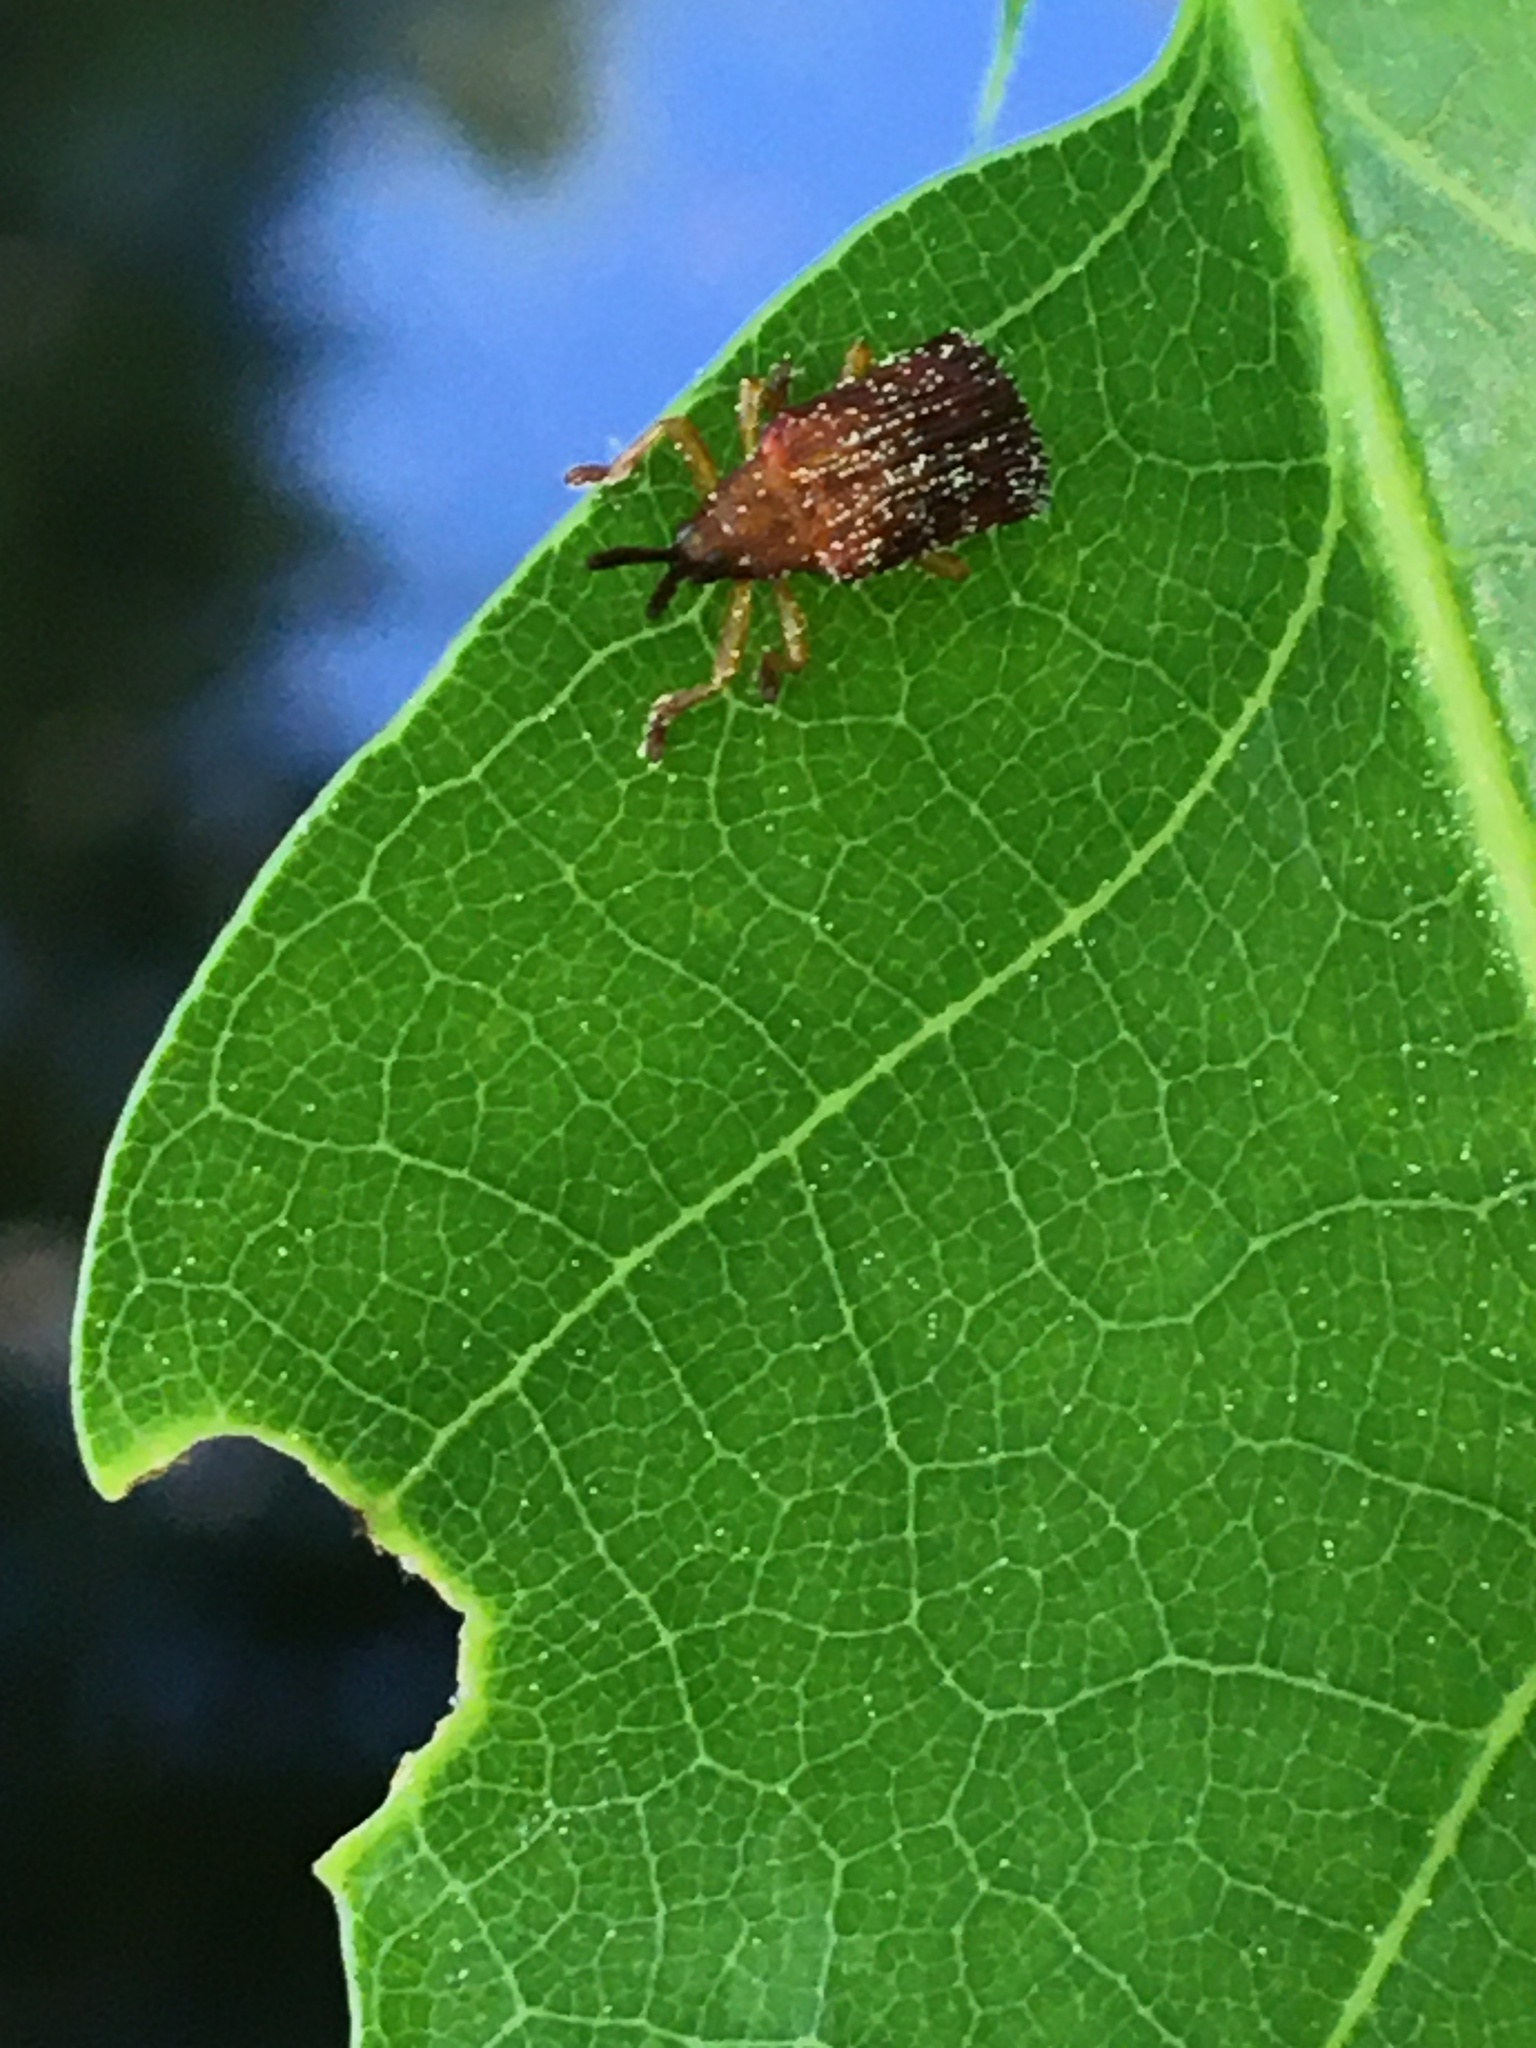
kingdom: Animalia
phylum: Arthropoda
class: Insecta
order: Coleoptera
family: Chrysomelidae
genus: Baliosus
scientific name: Baliosus nervosus
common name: Basswood leaf miner
